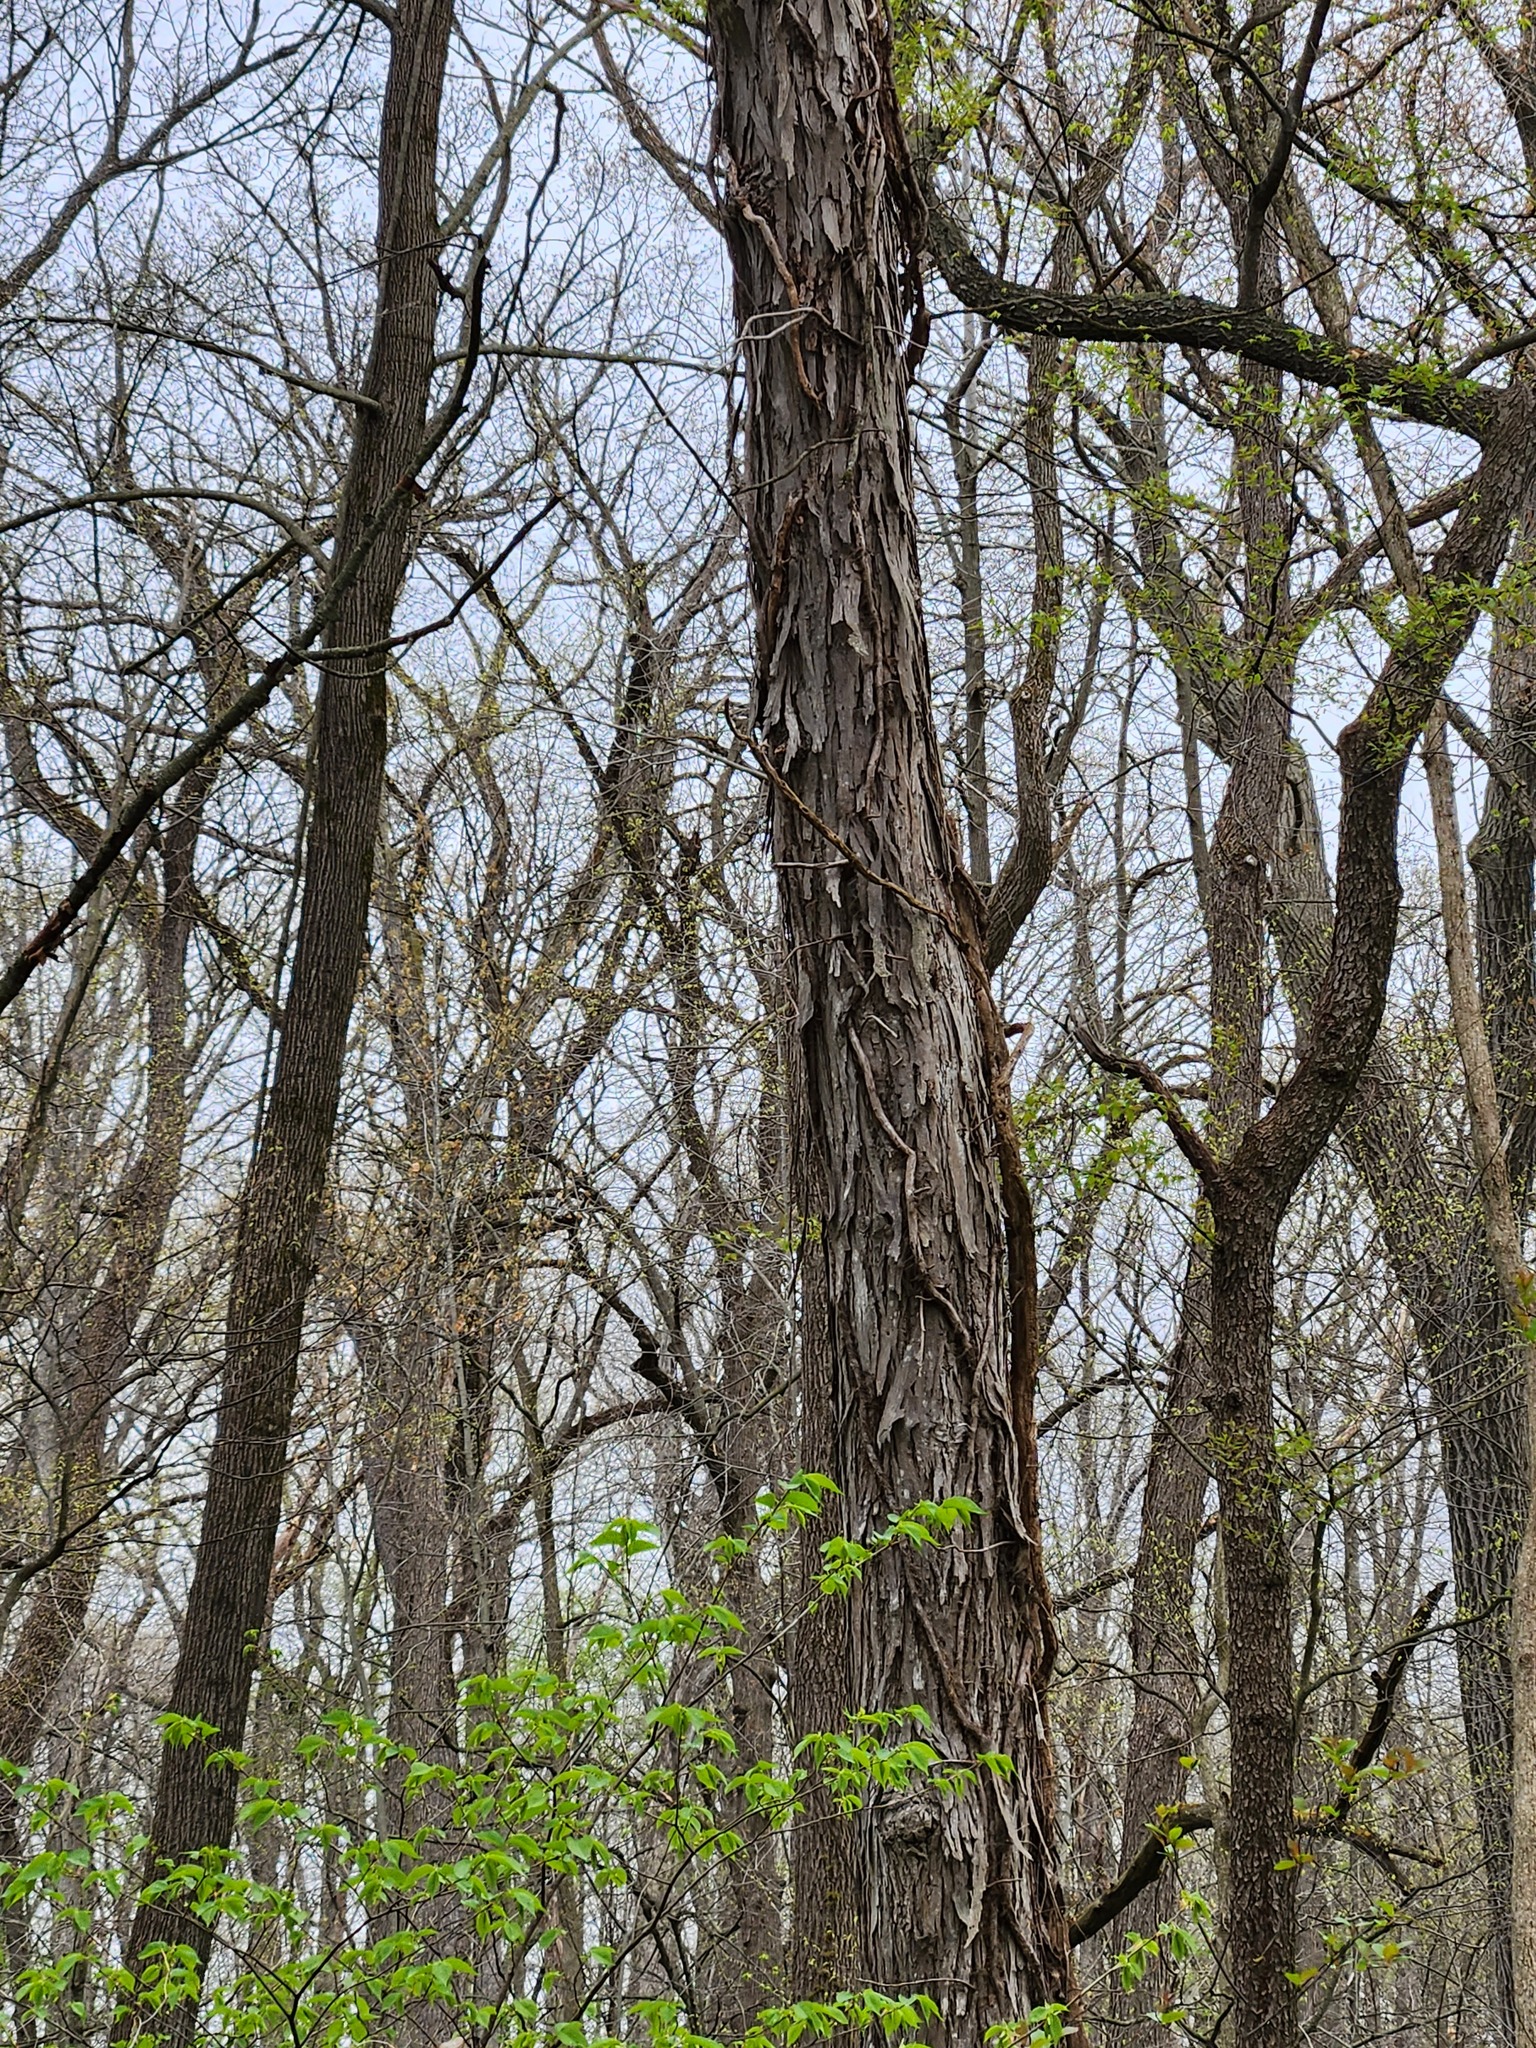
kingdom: Plantae
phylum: Tracheophyta
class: Magnoliopsida
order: Fagales
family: Juglandaceae
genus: Carya
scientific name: Carya ovata
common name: Shagbark hickory
